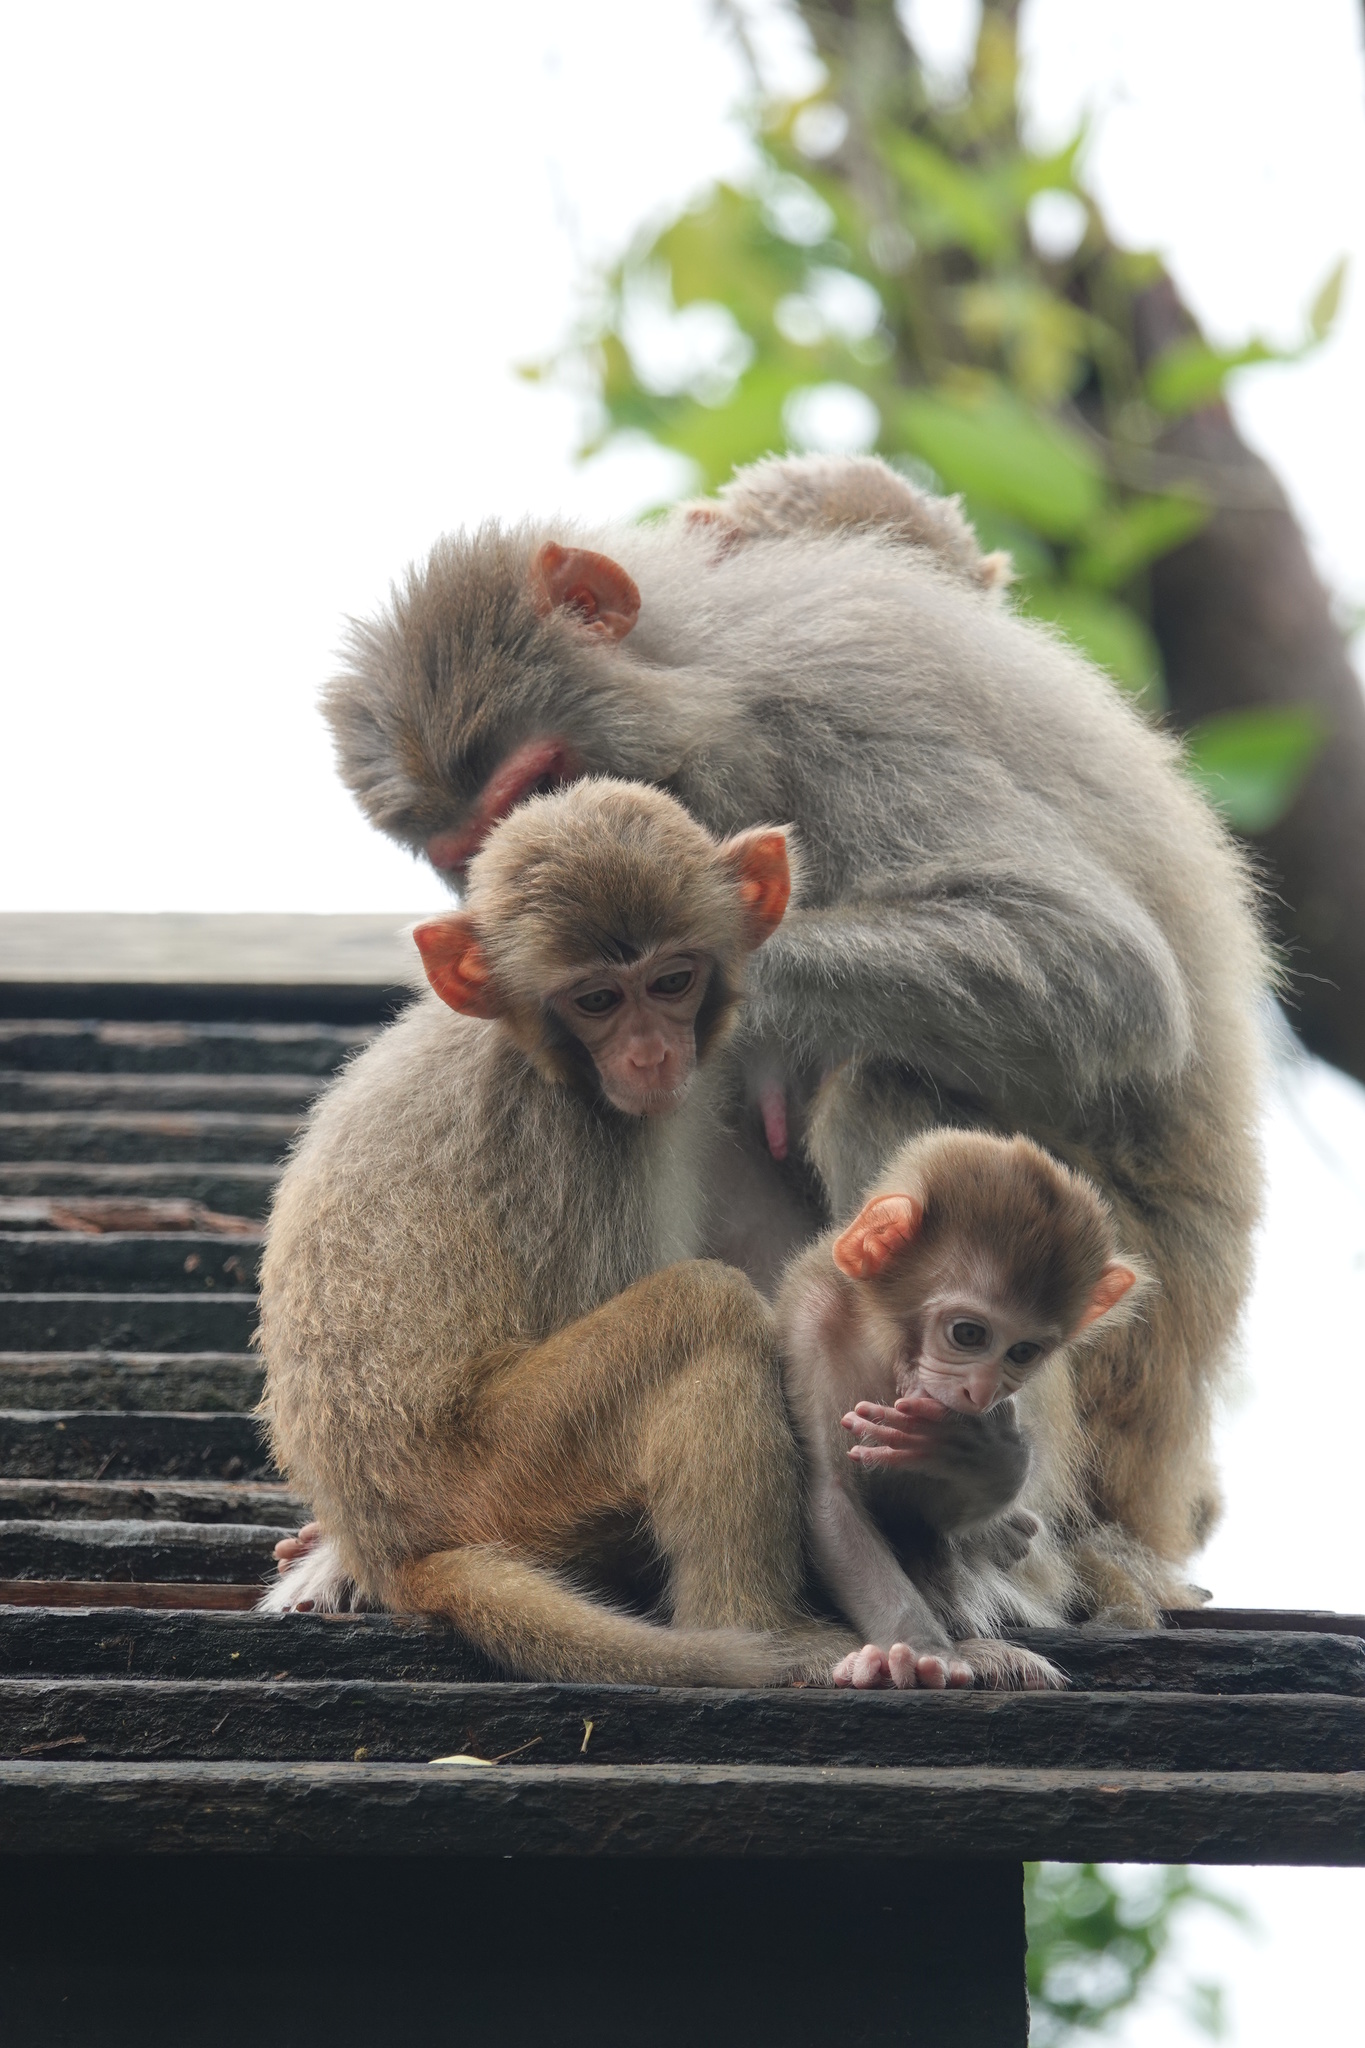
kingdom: Animalia
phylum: Chordata
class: Mammalia
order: Primates
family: Cercopithecidae
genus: Macaca
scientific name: Macaca mulatta
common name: Rhesus monkey
